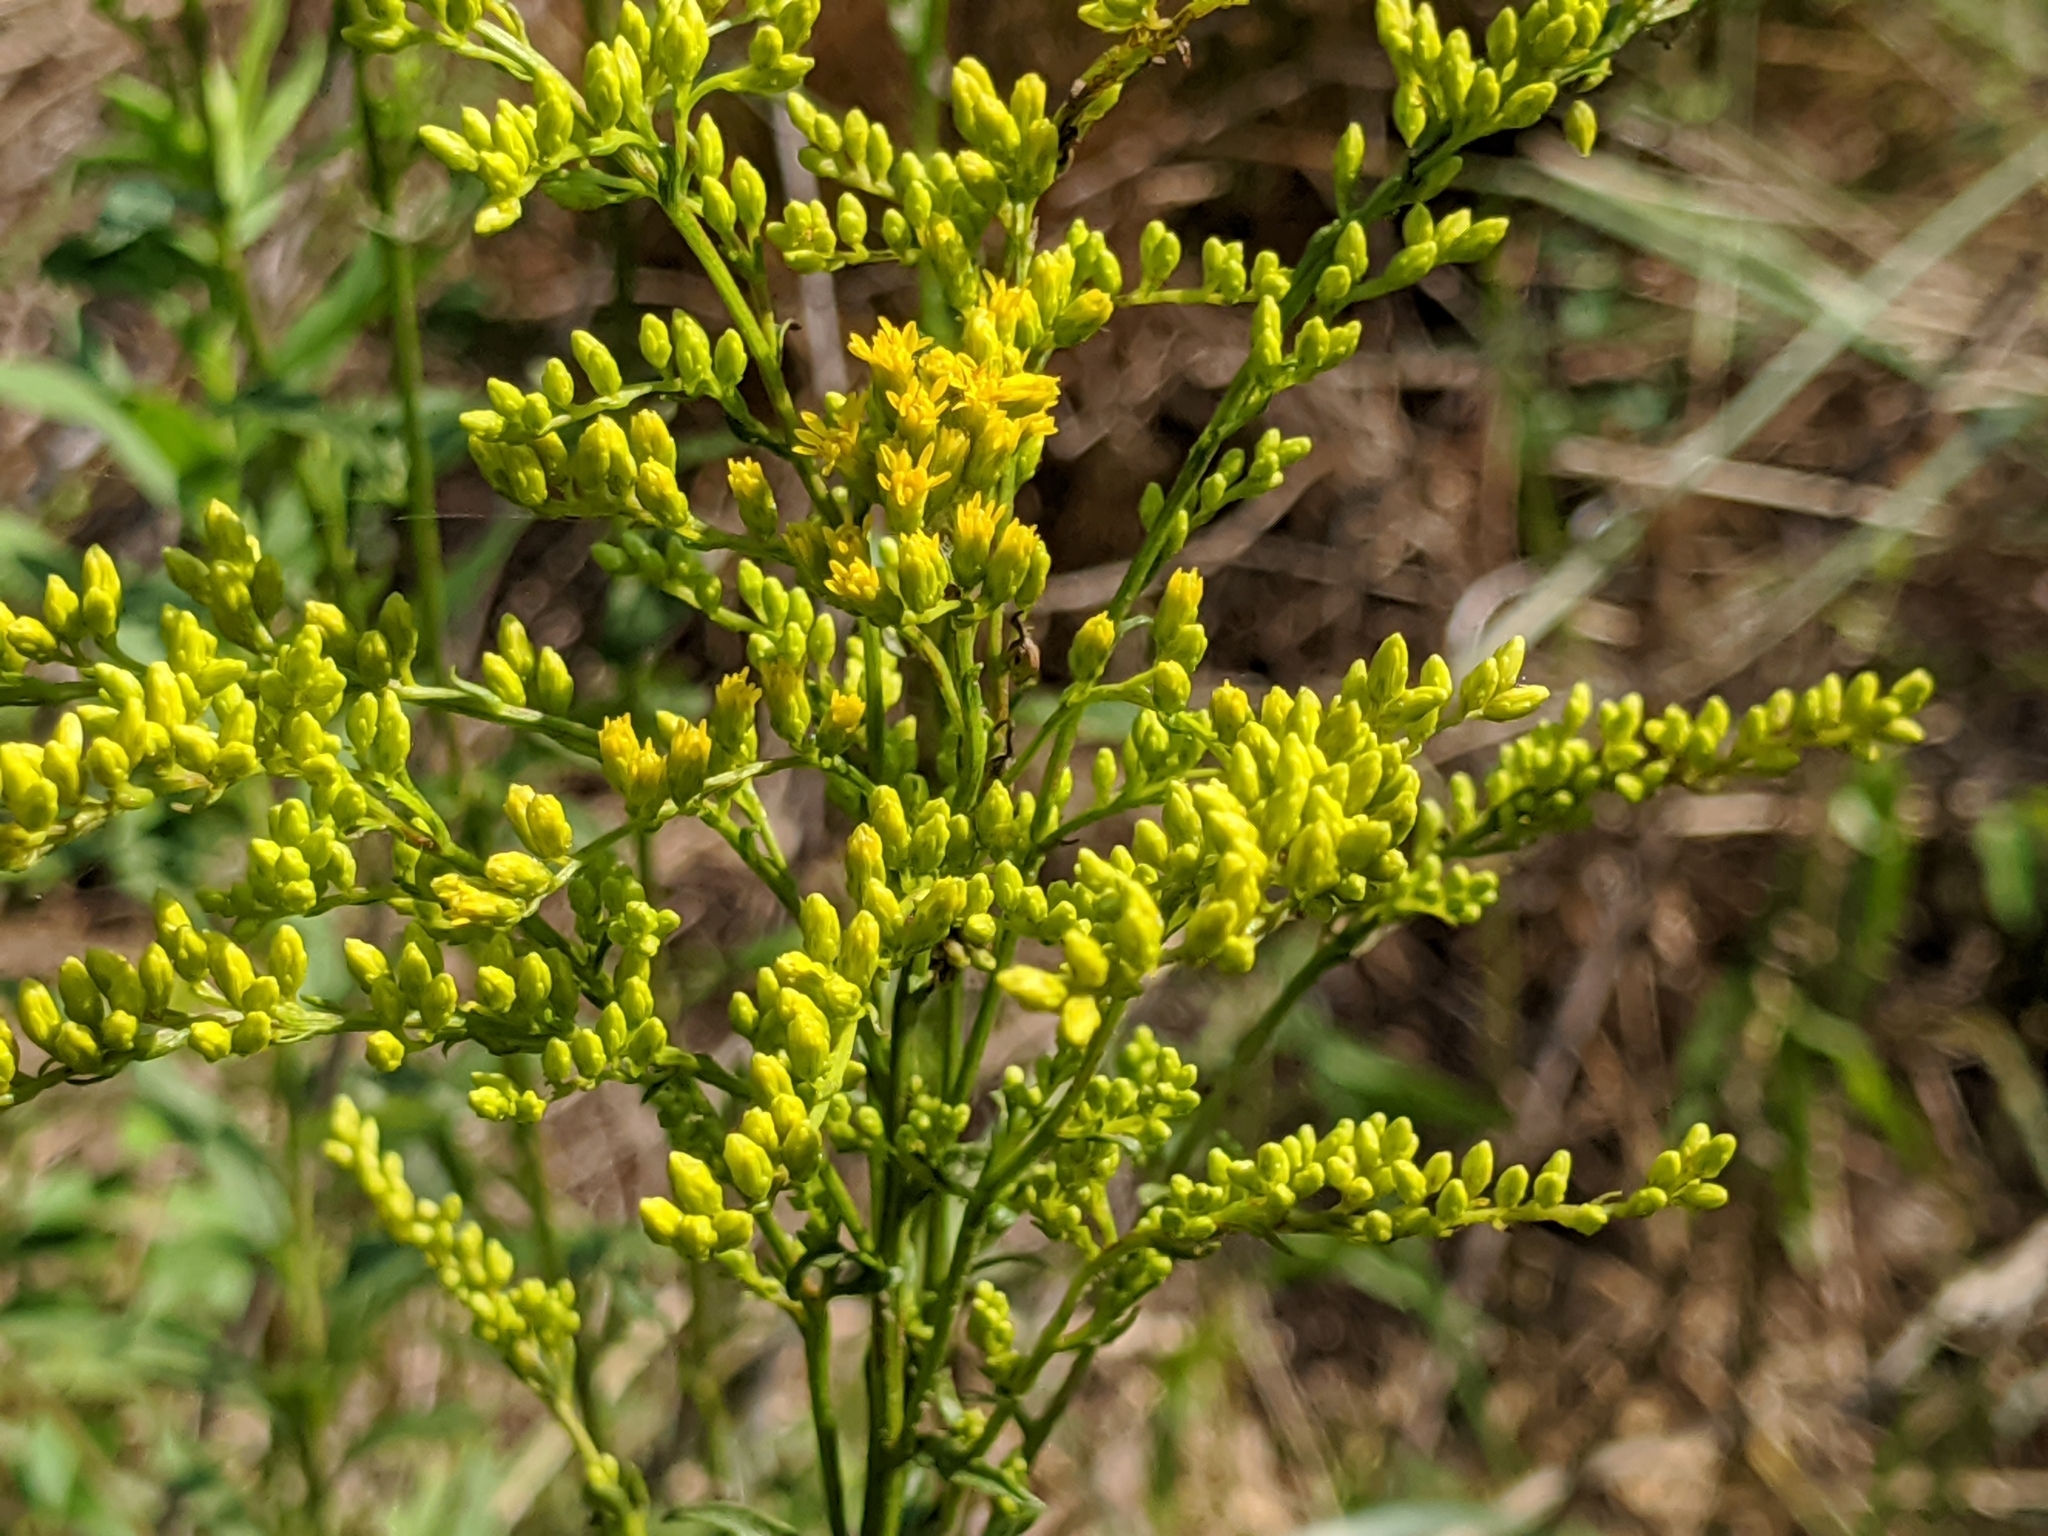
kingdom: Plantae
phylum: Tracheophyta
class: Magnoliopsida
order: Asterales
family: Asteraceae
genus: Solidago
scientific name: Solidago juncea
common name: Early goldenrod
